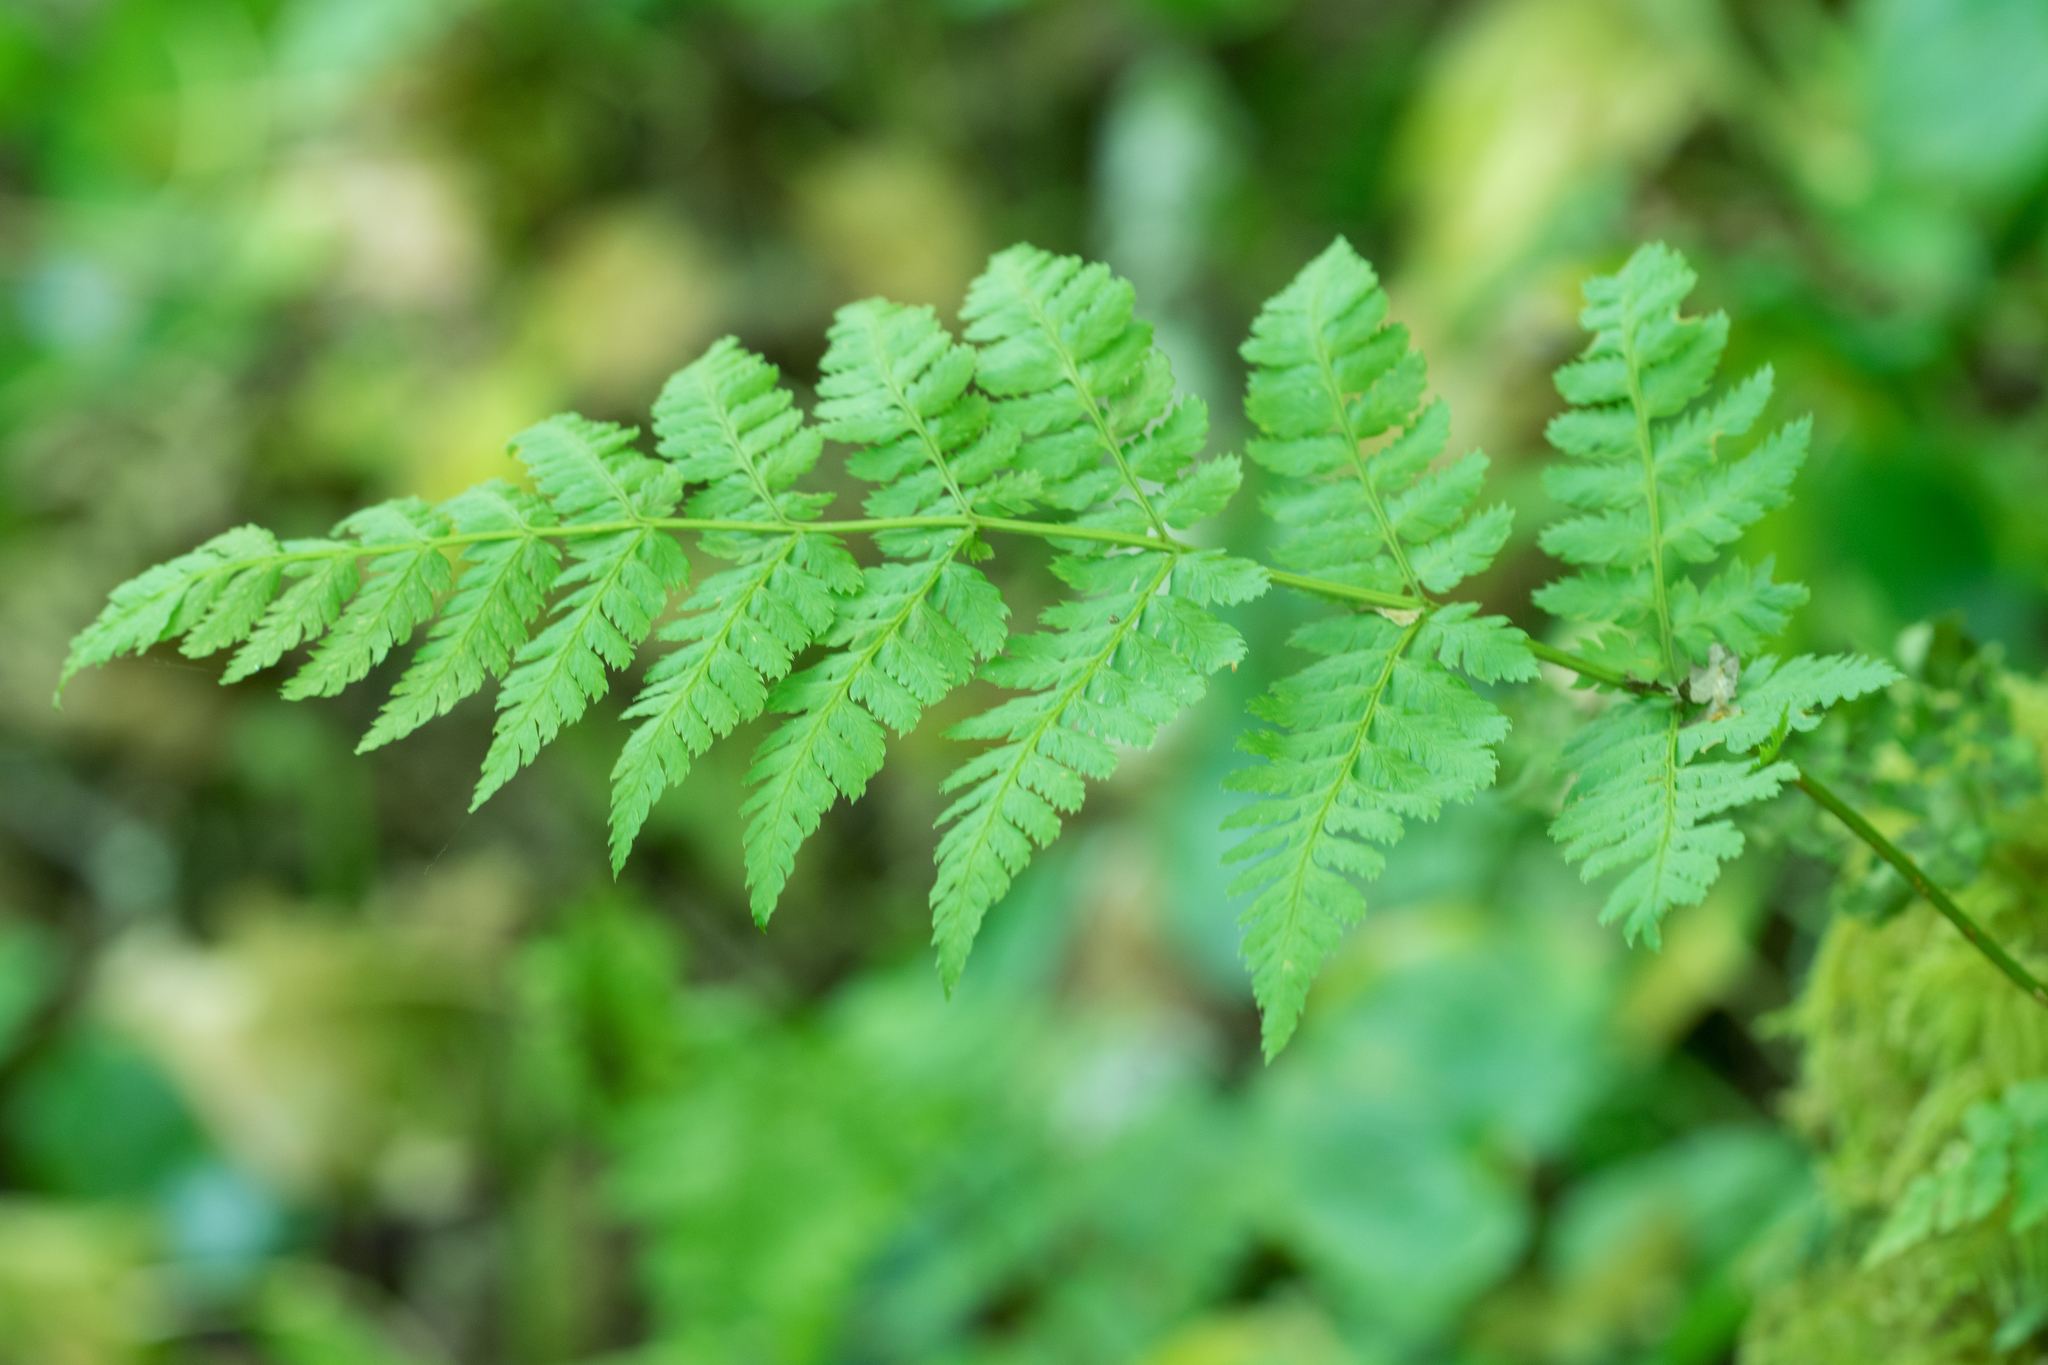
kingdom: Plantae
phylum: Tracheophyta
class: Polypodiopsida
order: Polypodiales
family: Dryopteridaceae
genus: Dryopteris
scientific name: Dryopteris expansa
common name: Northern buckler fern
